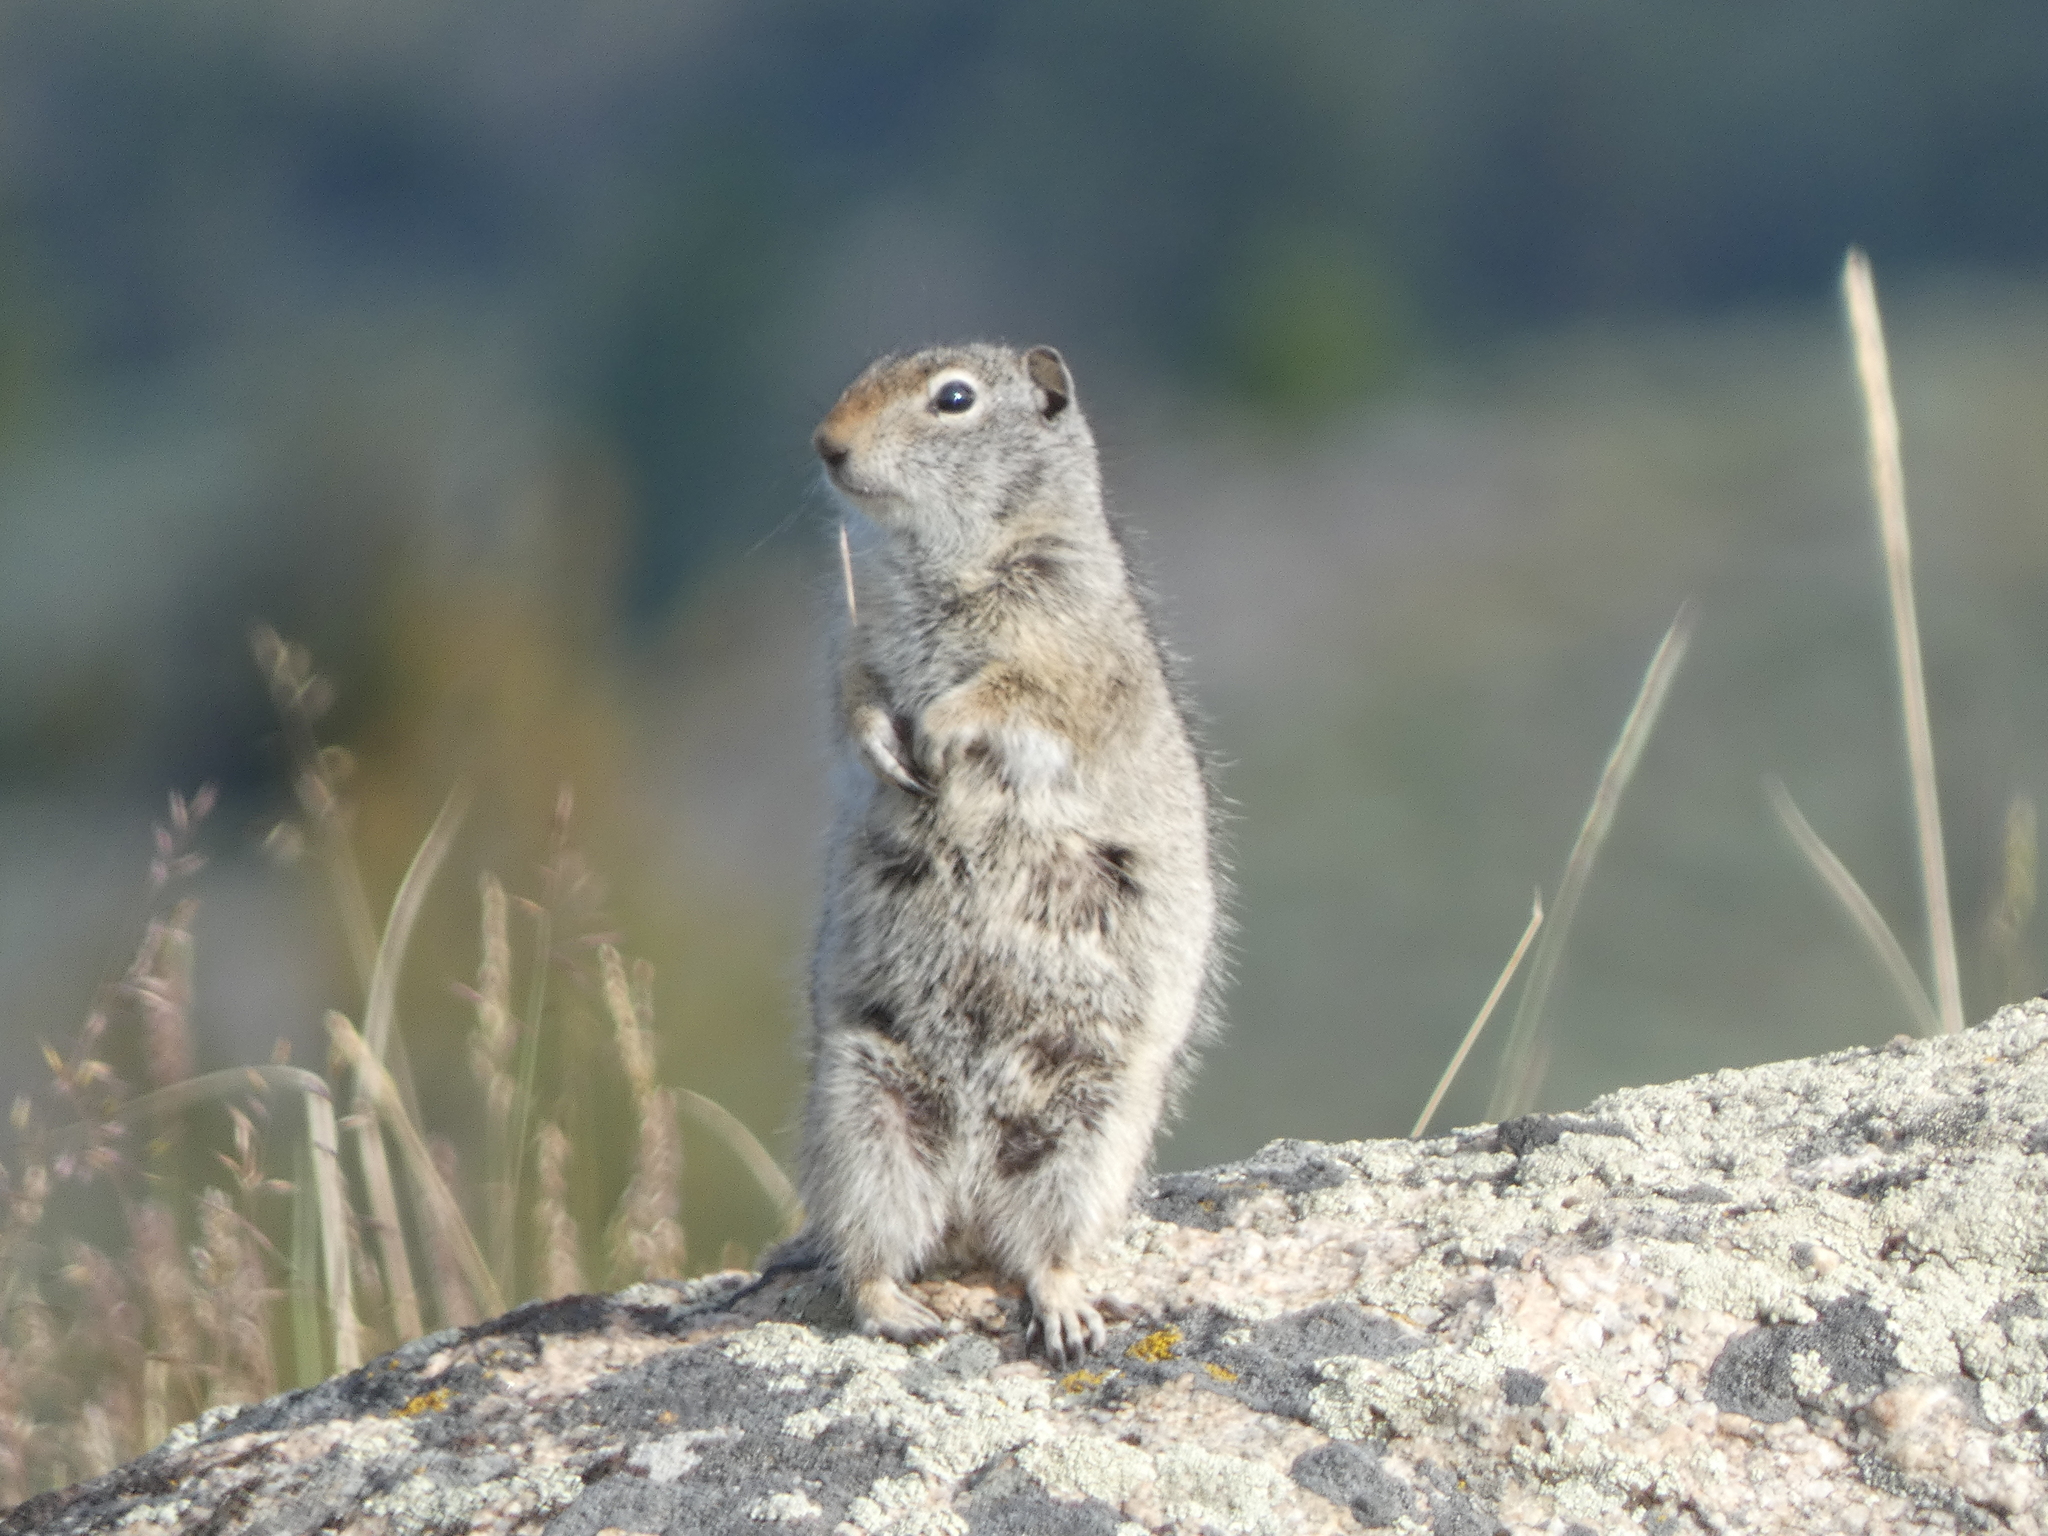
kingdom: Animalia
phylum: Chordata
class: Mammalia
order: Rodentia
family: Sciuridae
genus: Urocitellus
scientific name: Urocitellus armatus
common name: Uinta ground squirrel
